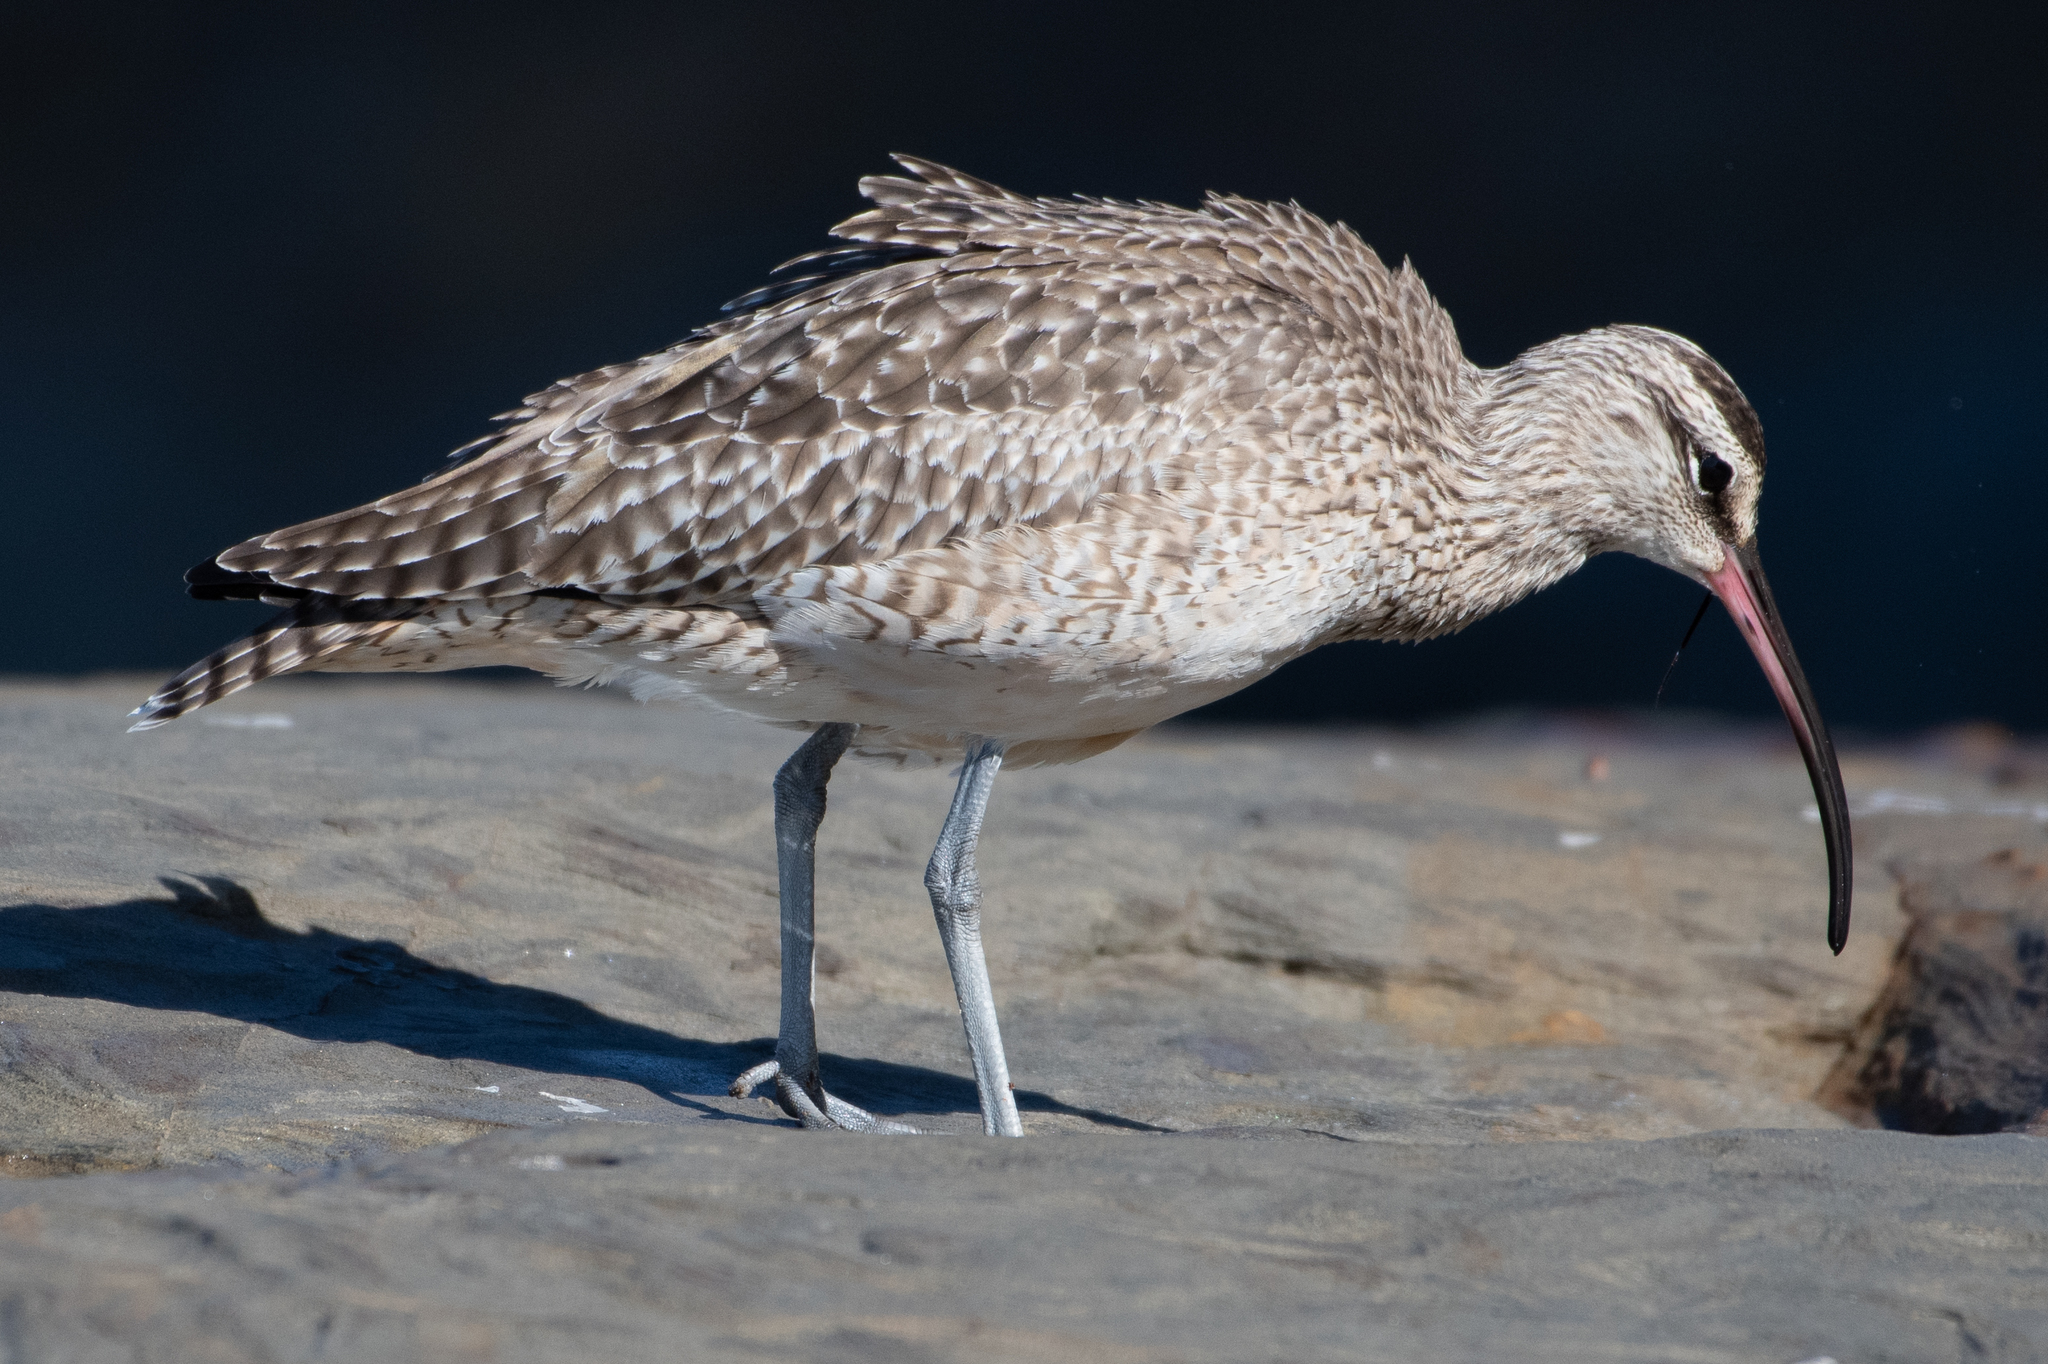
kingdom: Animalia
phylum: Chordata
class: Aves
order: Charadriiformes
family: Scolopacidae
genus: Numenius
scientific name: Numenius phaeopus
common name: Whimbrel
